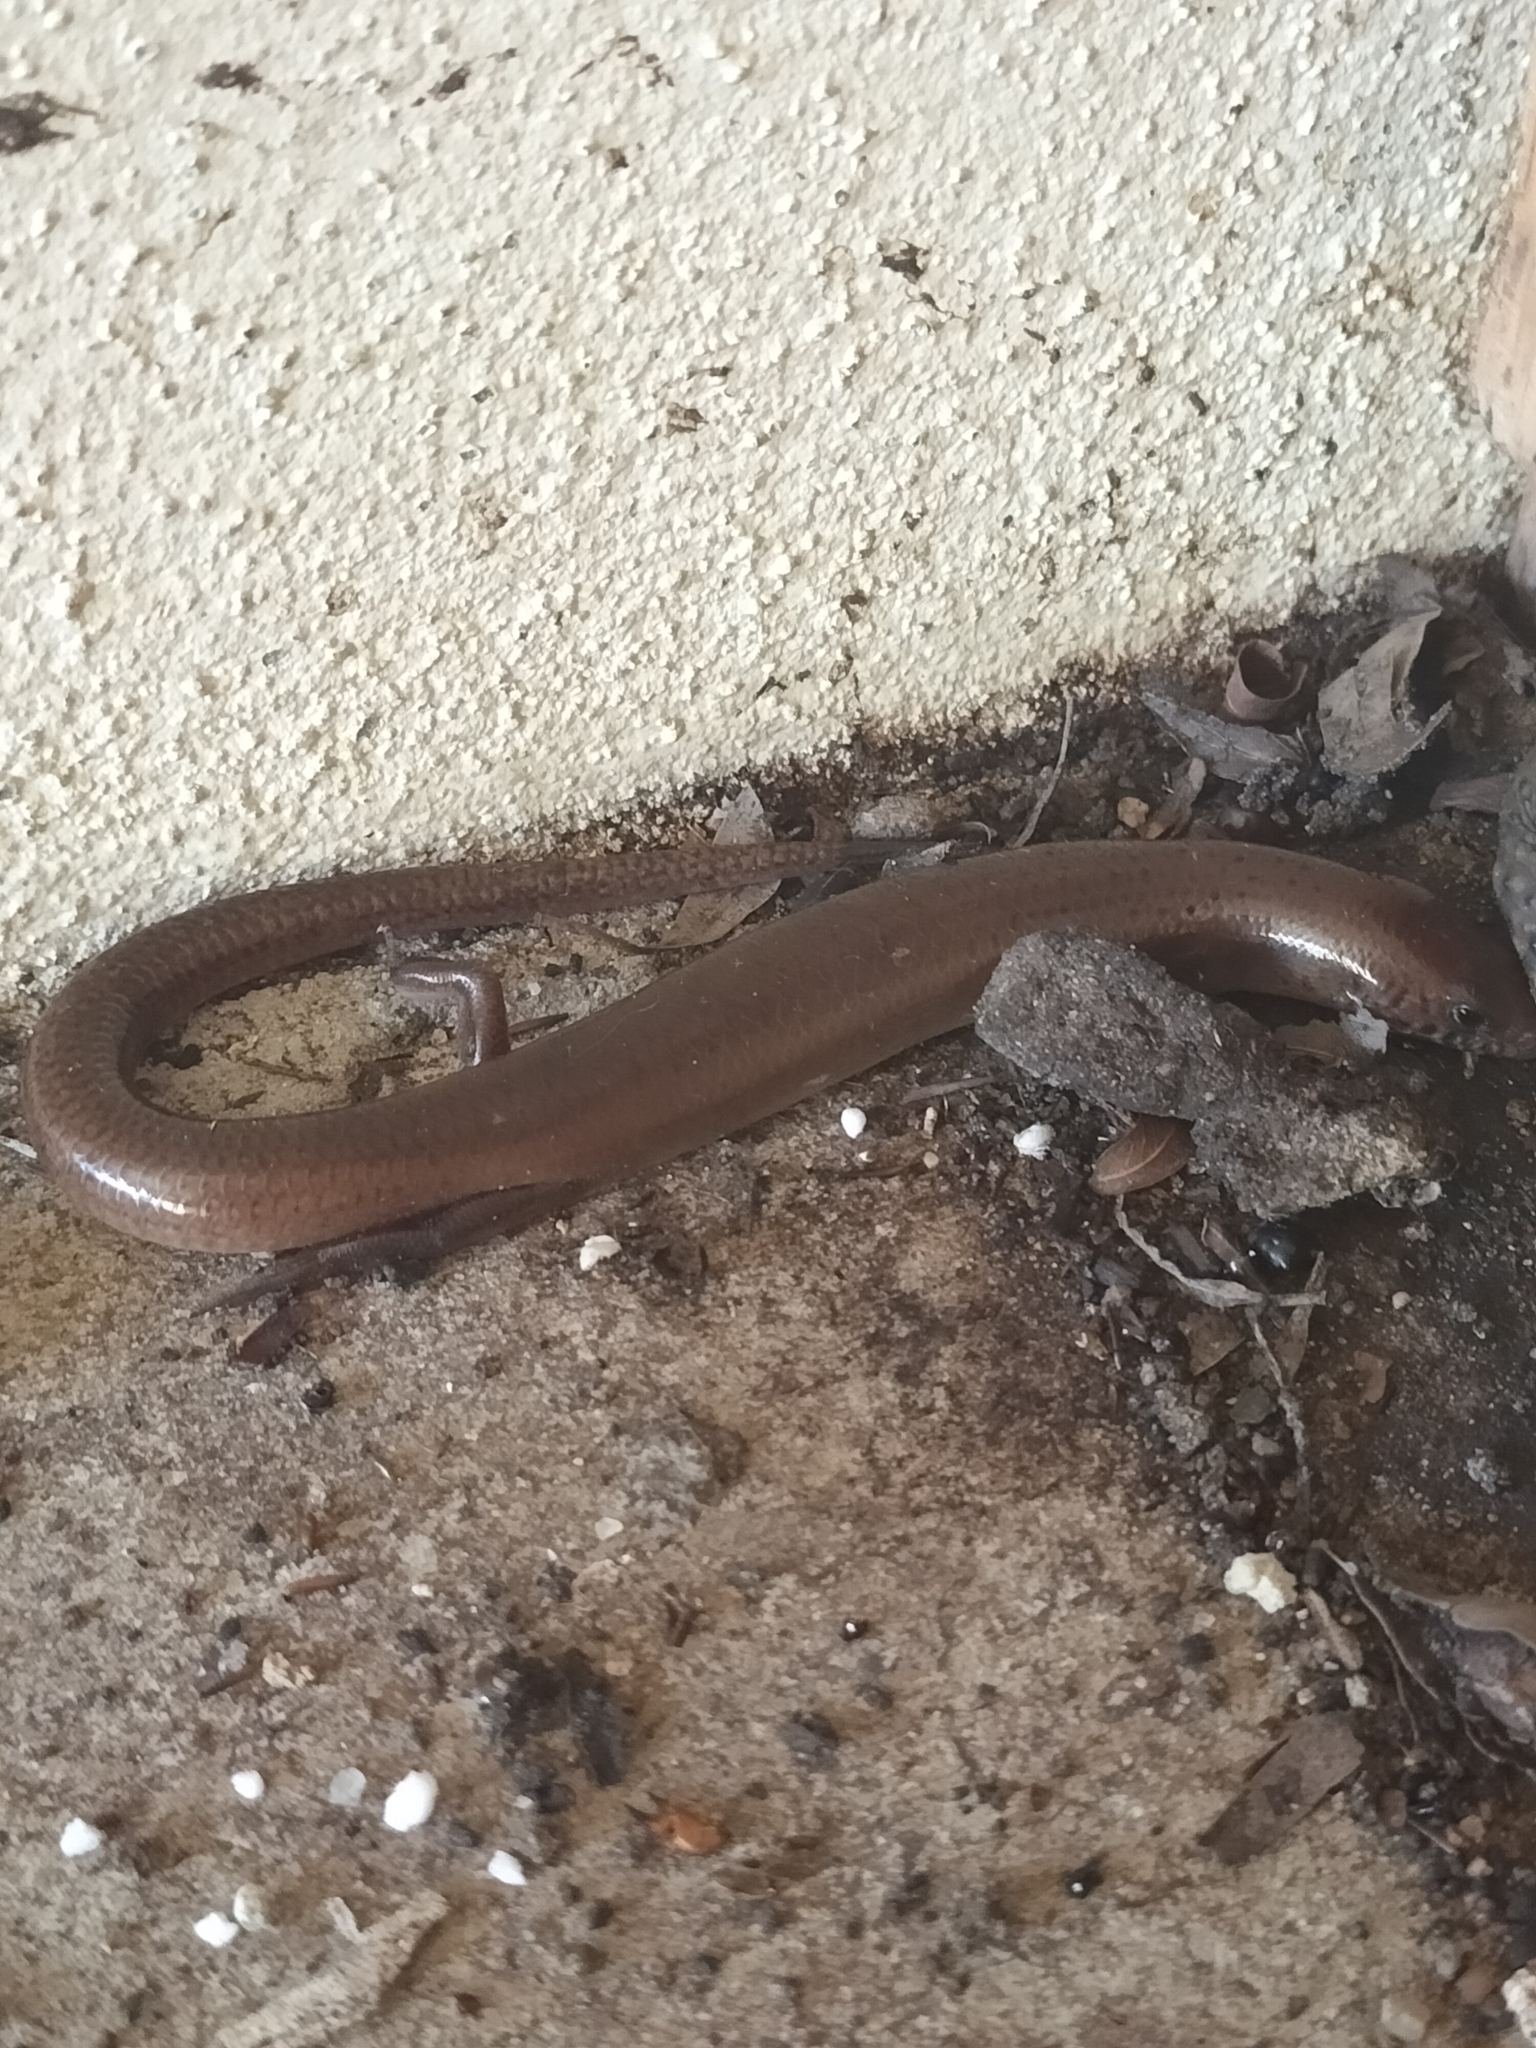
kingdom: Animalia
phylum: Chordata
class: Squamata
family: Scincidae
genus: Glaphyromorphus
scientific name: Glaphyromorphus nigricaudis
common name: Black-tailed bar-lipped skink
